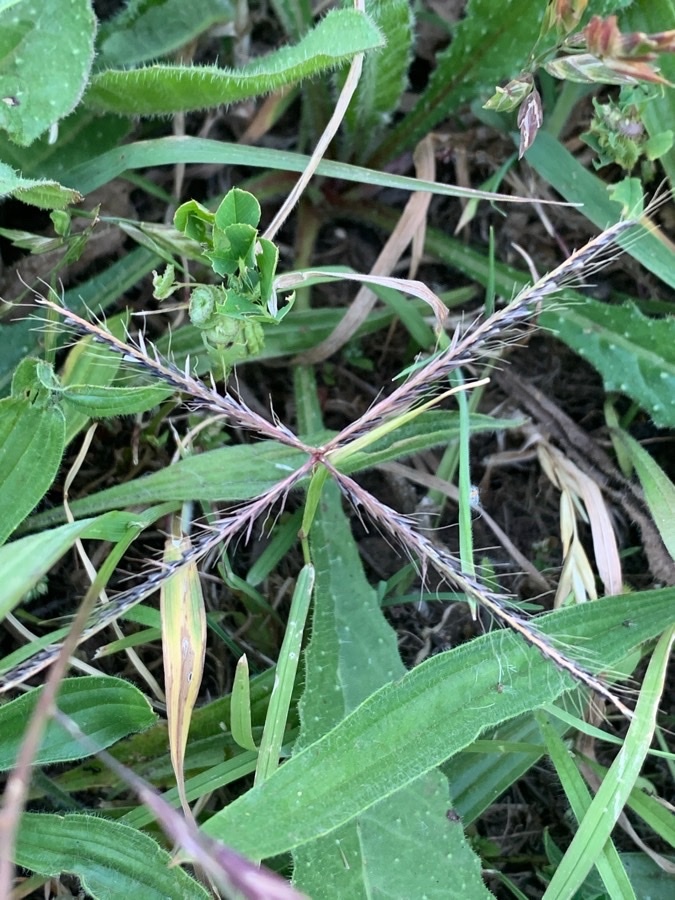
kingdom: Plantae
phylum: Tracheophyta
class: Liliopsida
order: Poales
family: Poaceae
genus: Chloris
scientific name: Chloris truncata
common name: Windmill-grass
